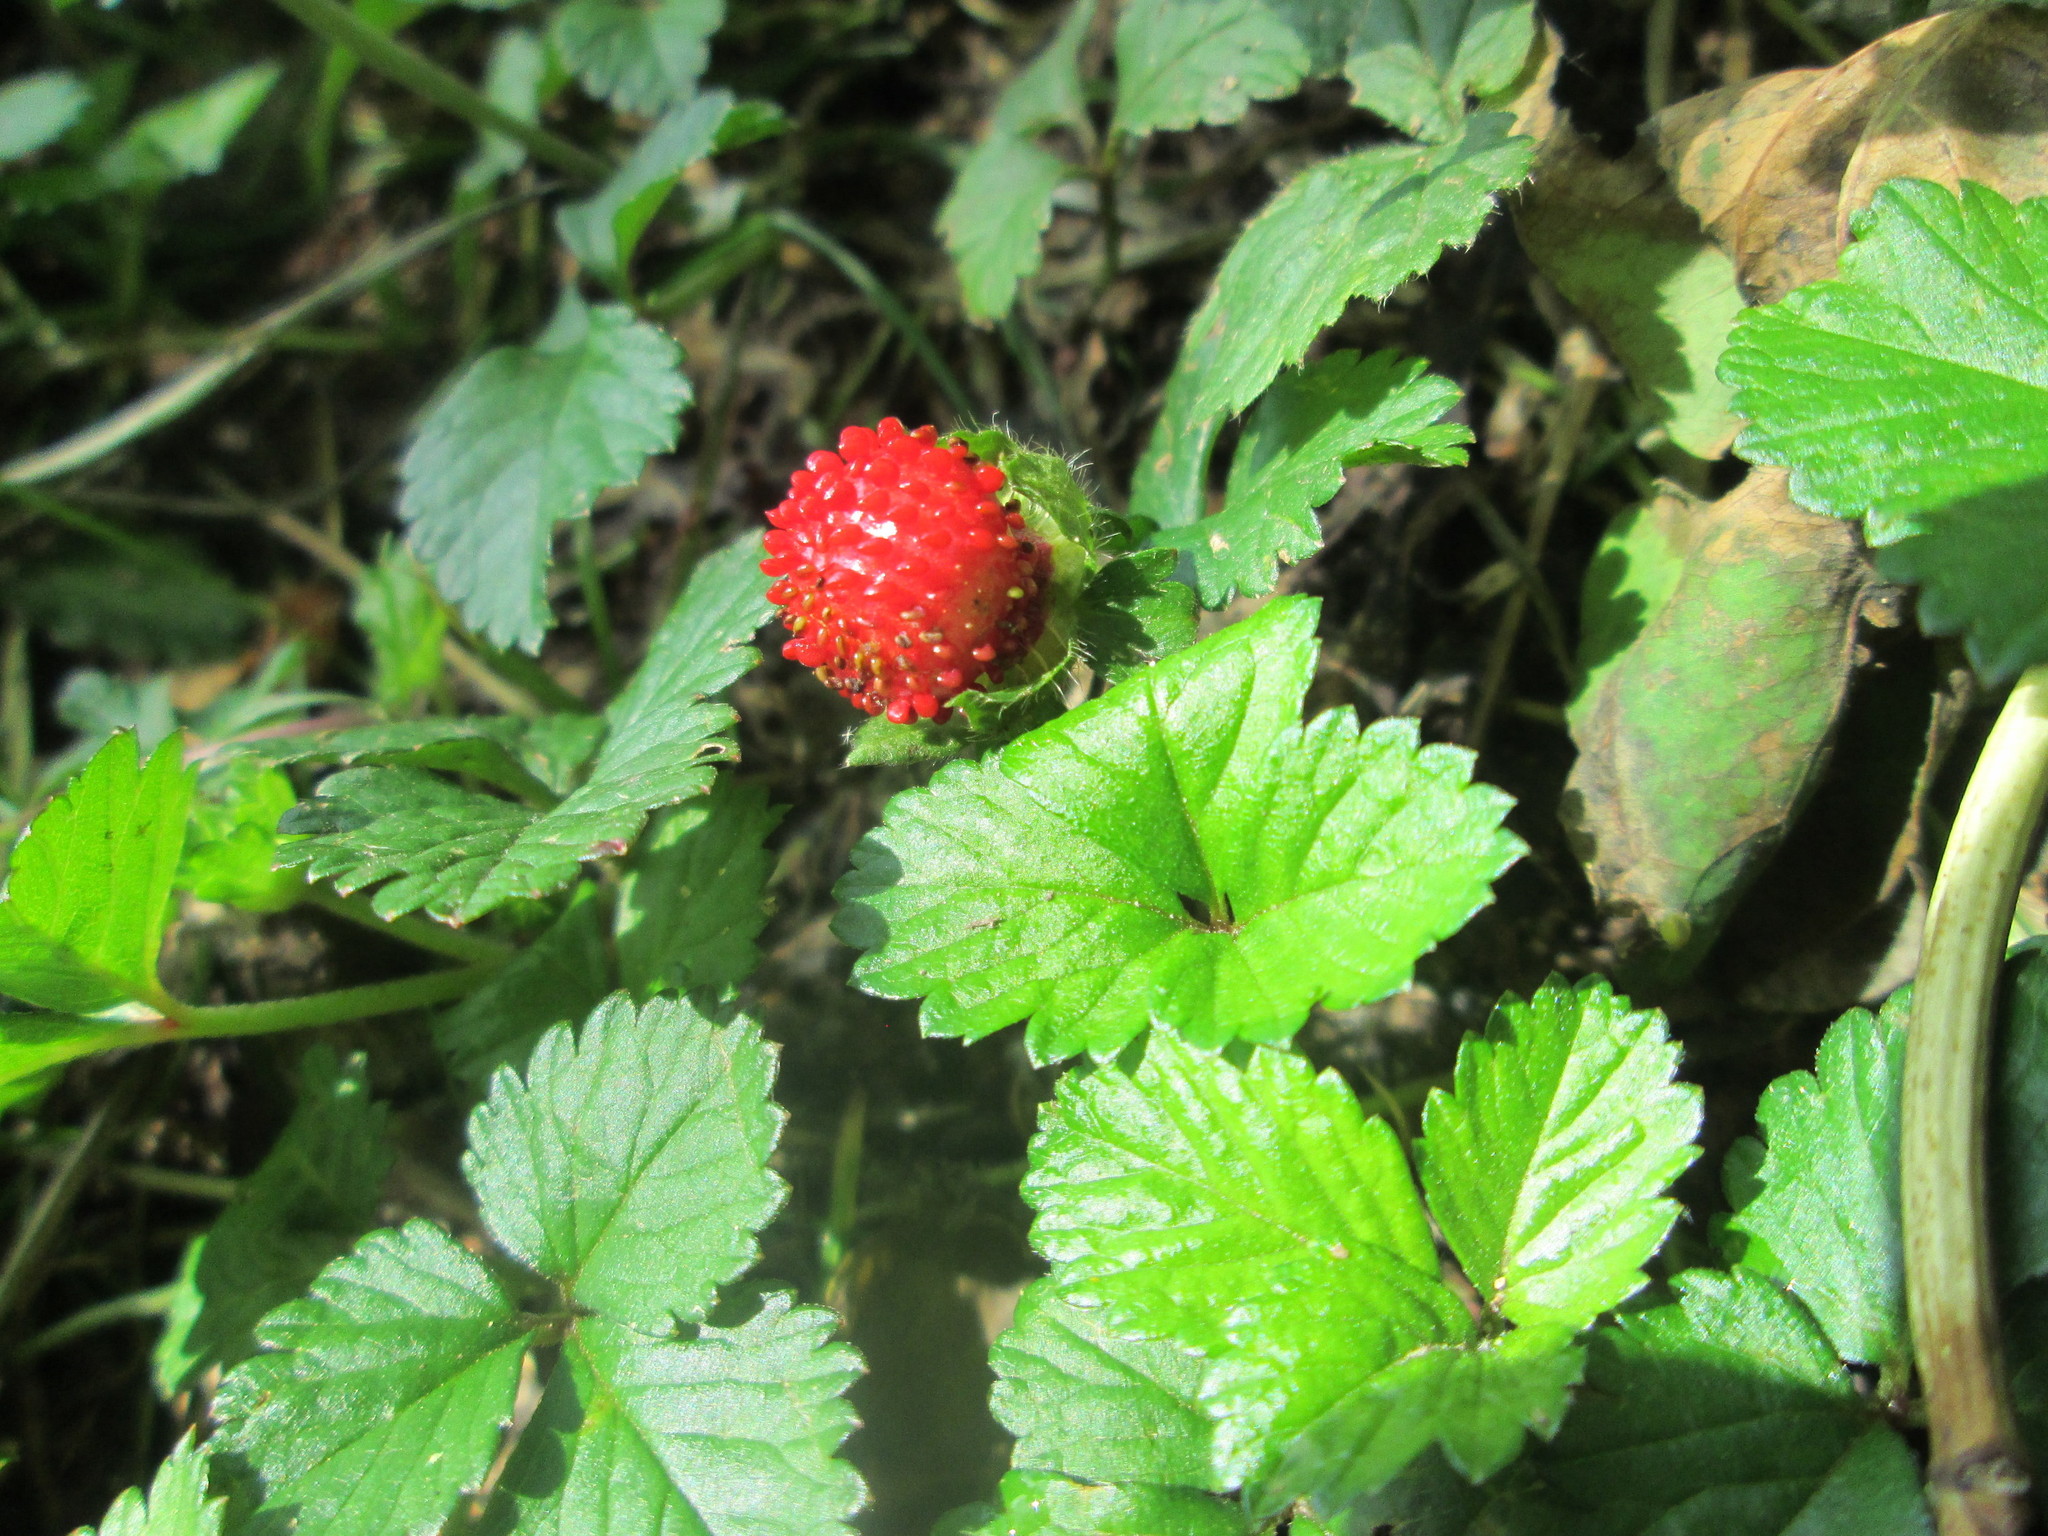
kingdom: Plantae
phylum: Tracheophyta
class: Magnoliopsida
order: Rosales
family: Rosaceae
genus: Potentilla
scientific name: Potentilla indica
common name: Yellow-flowered strawberry
